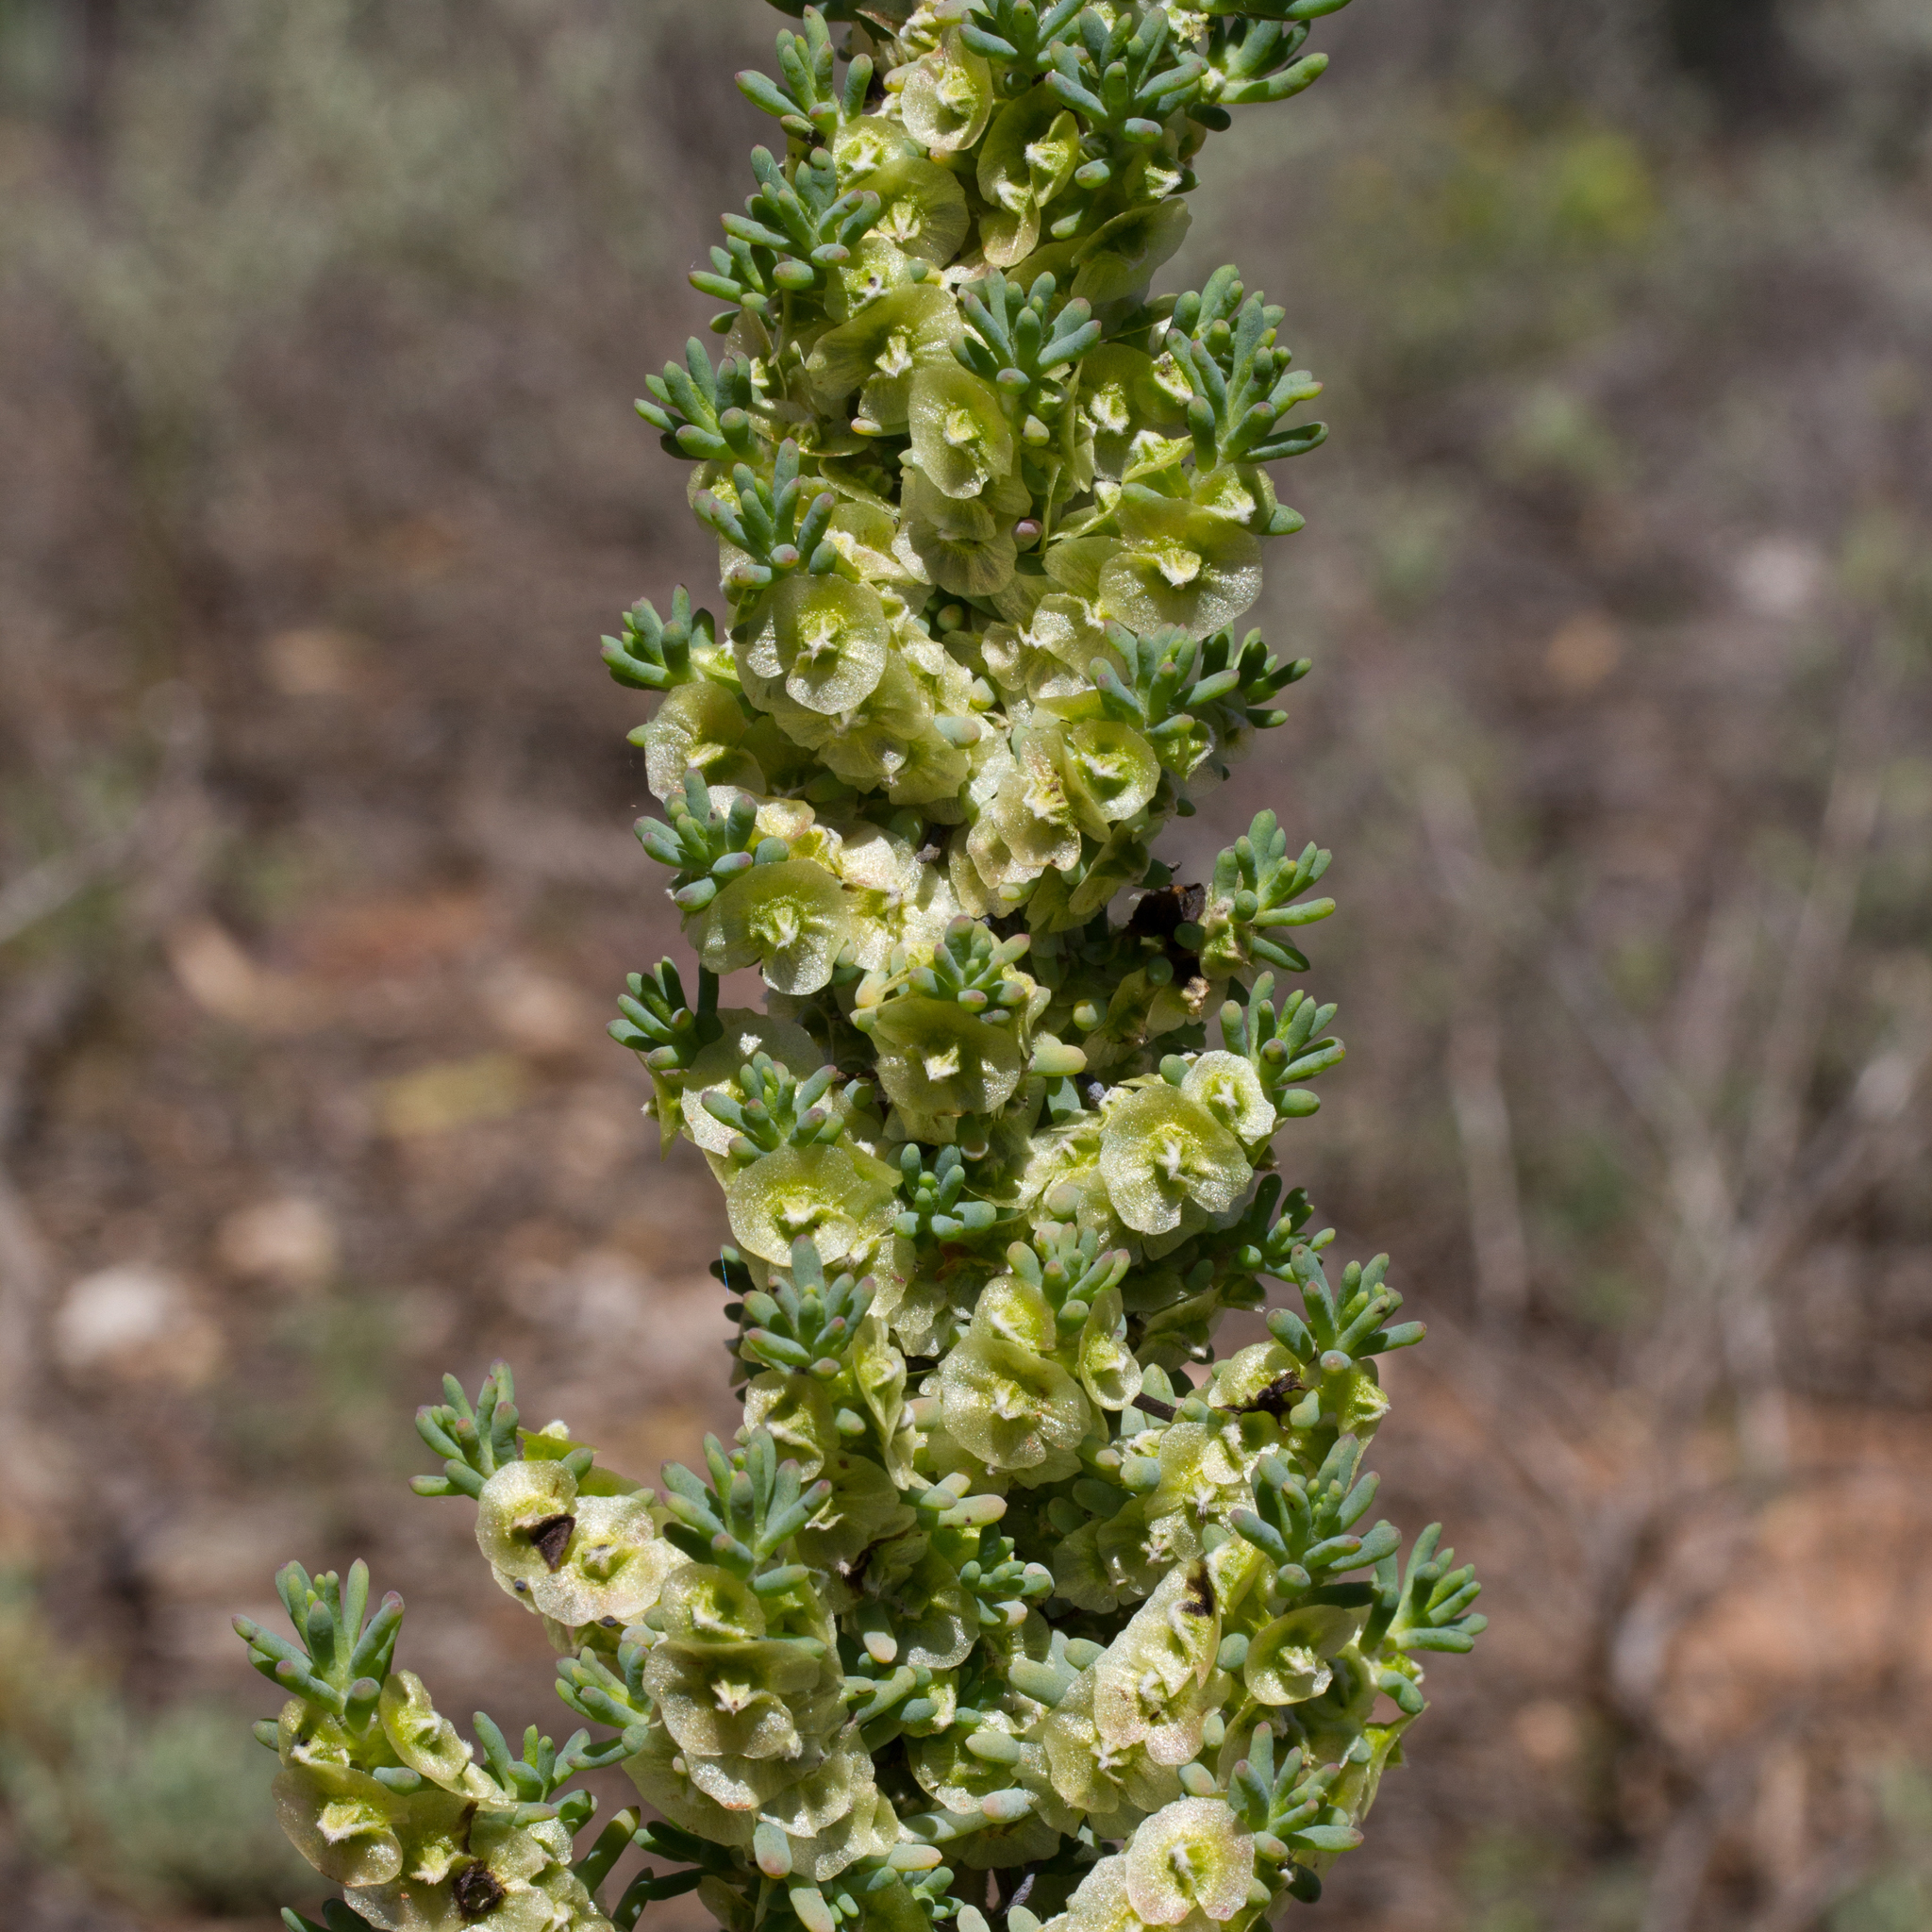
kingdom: Plantae
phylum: Tracheophyta
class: Magnoliopsida
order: Caryophyllales
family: Amaranthaceae
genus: Maireana
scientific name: Maireana pentatropis
